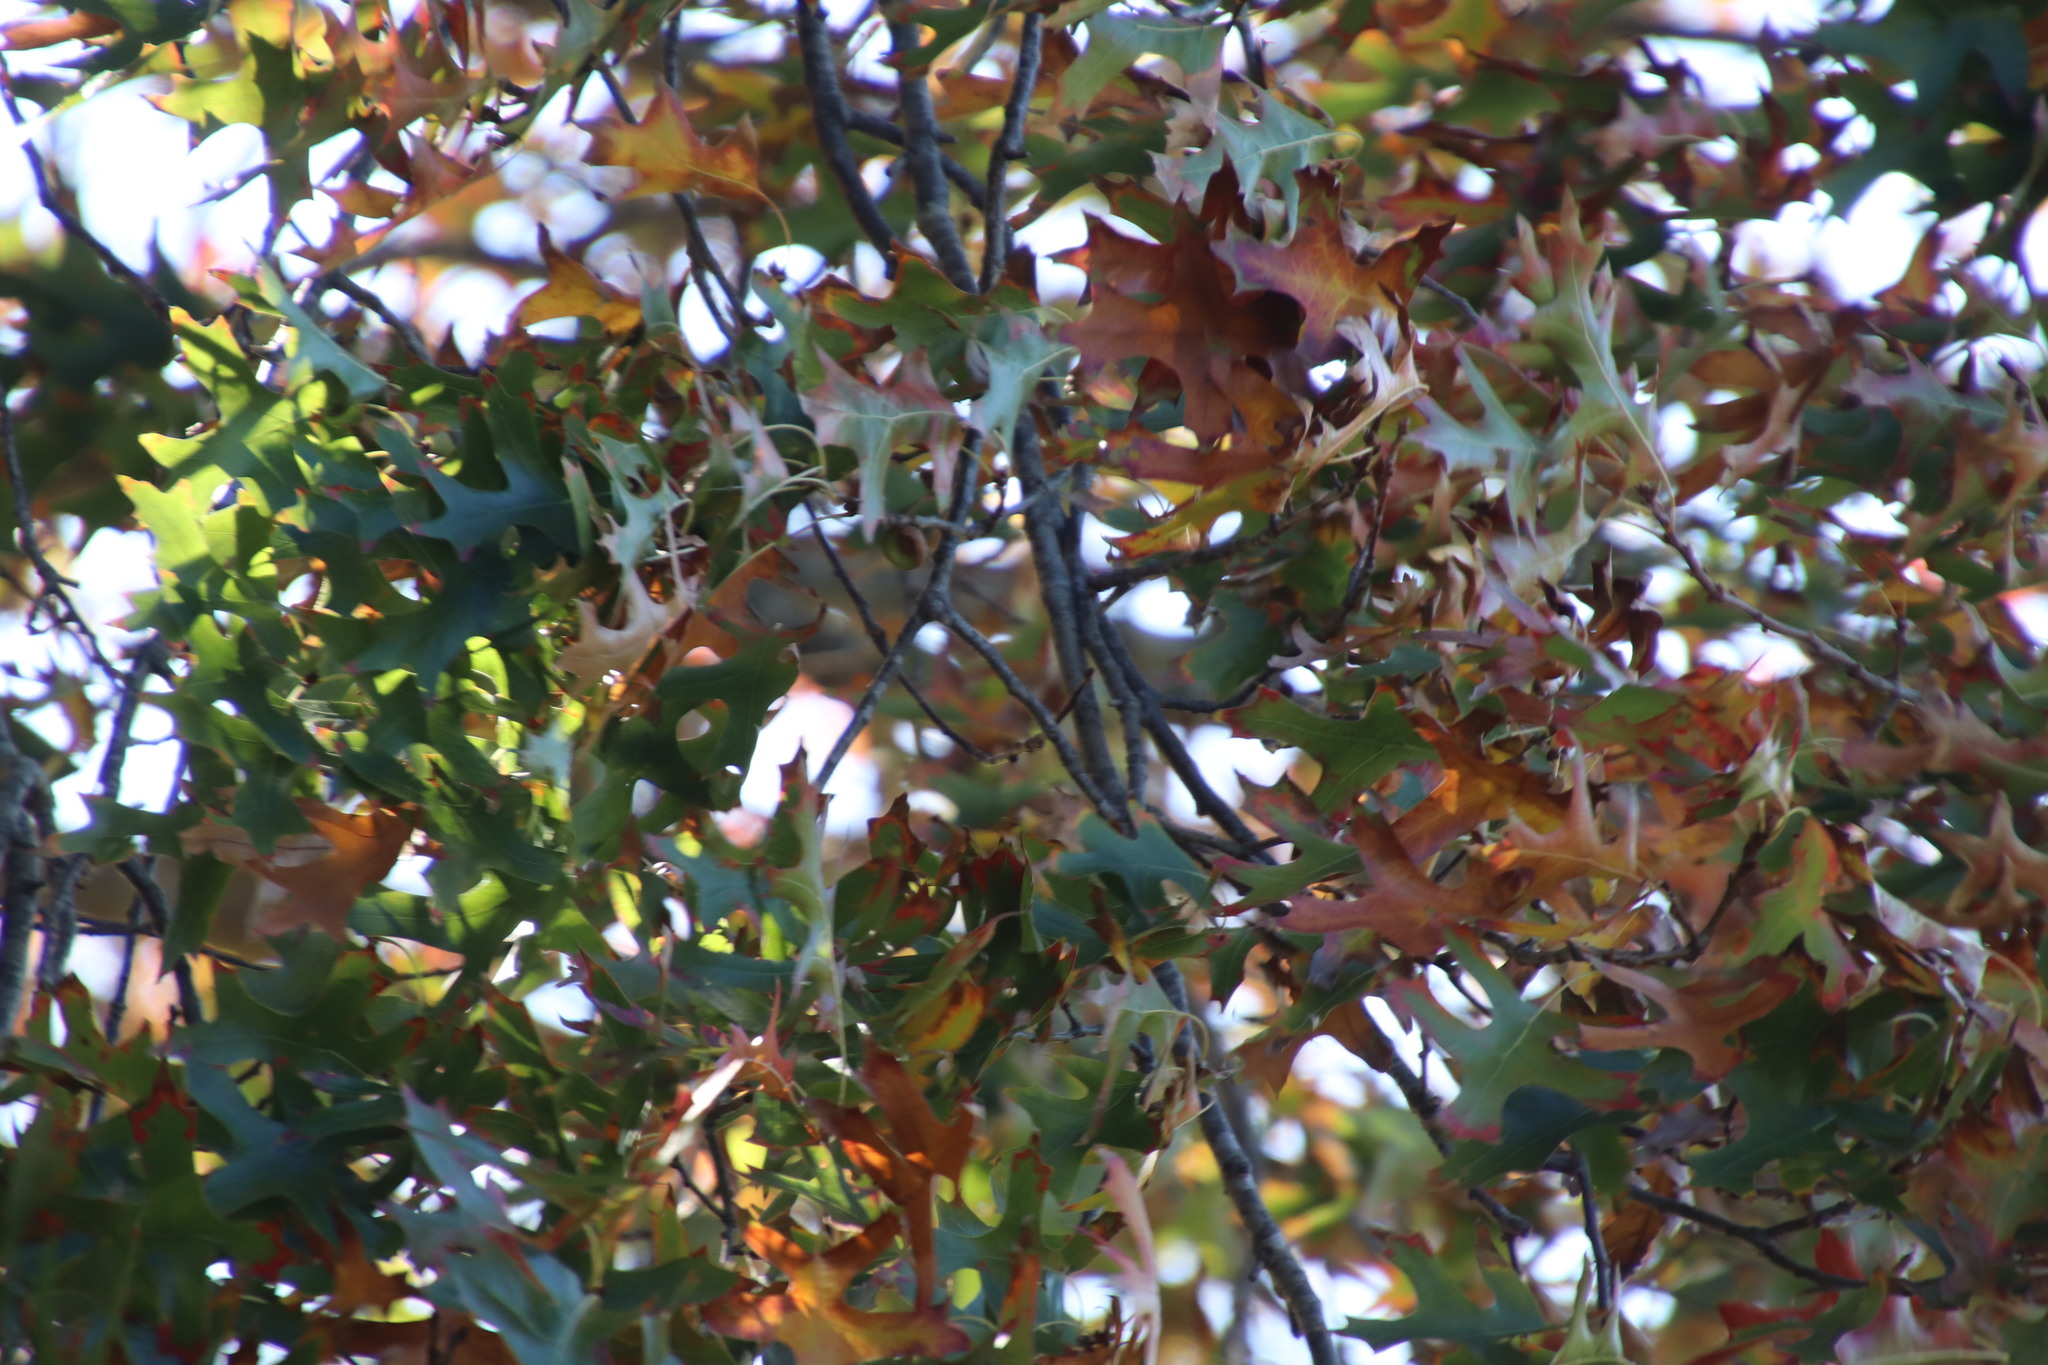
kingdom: Plantae
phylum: Tracheophyta
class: Magnoliopsida
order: Fagales
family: Fagaceae
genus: Quercus
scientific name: Quercus palustris
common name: Pin oak
